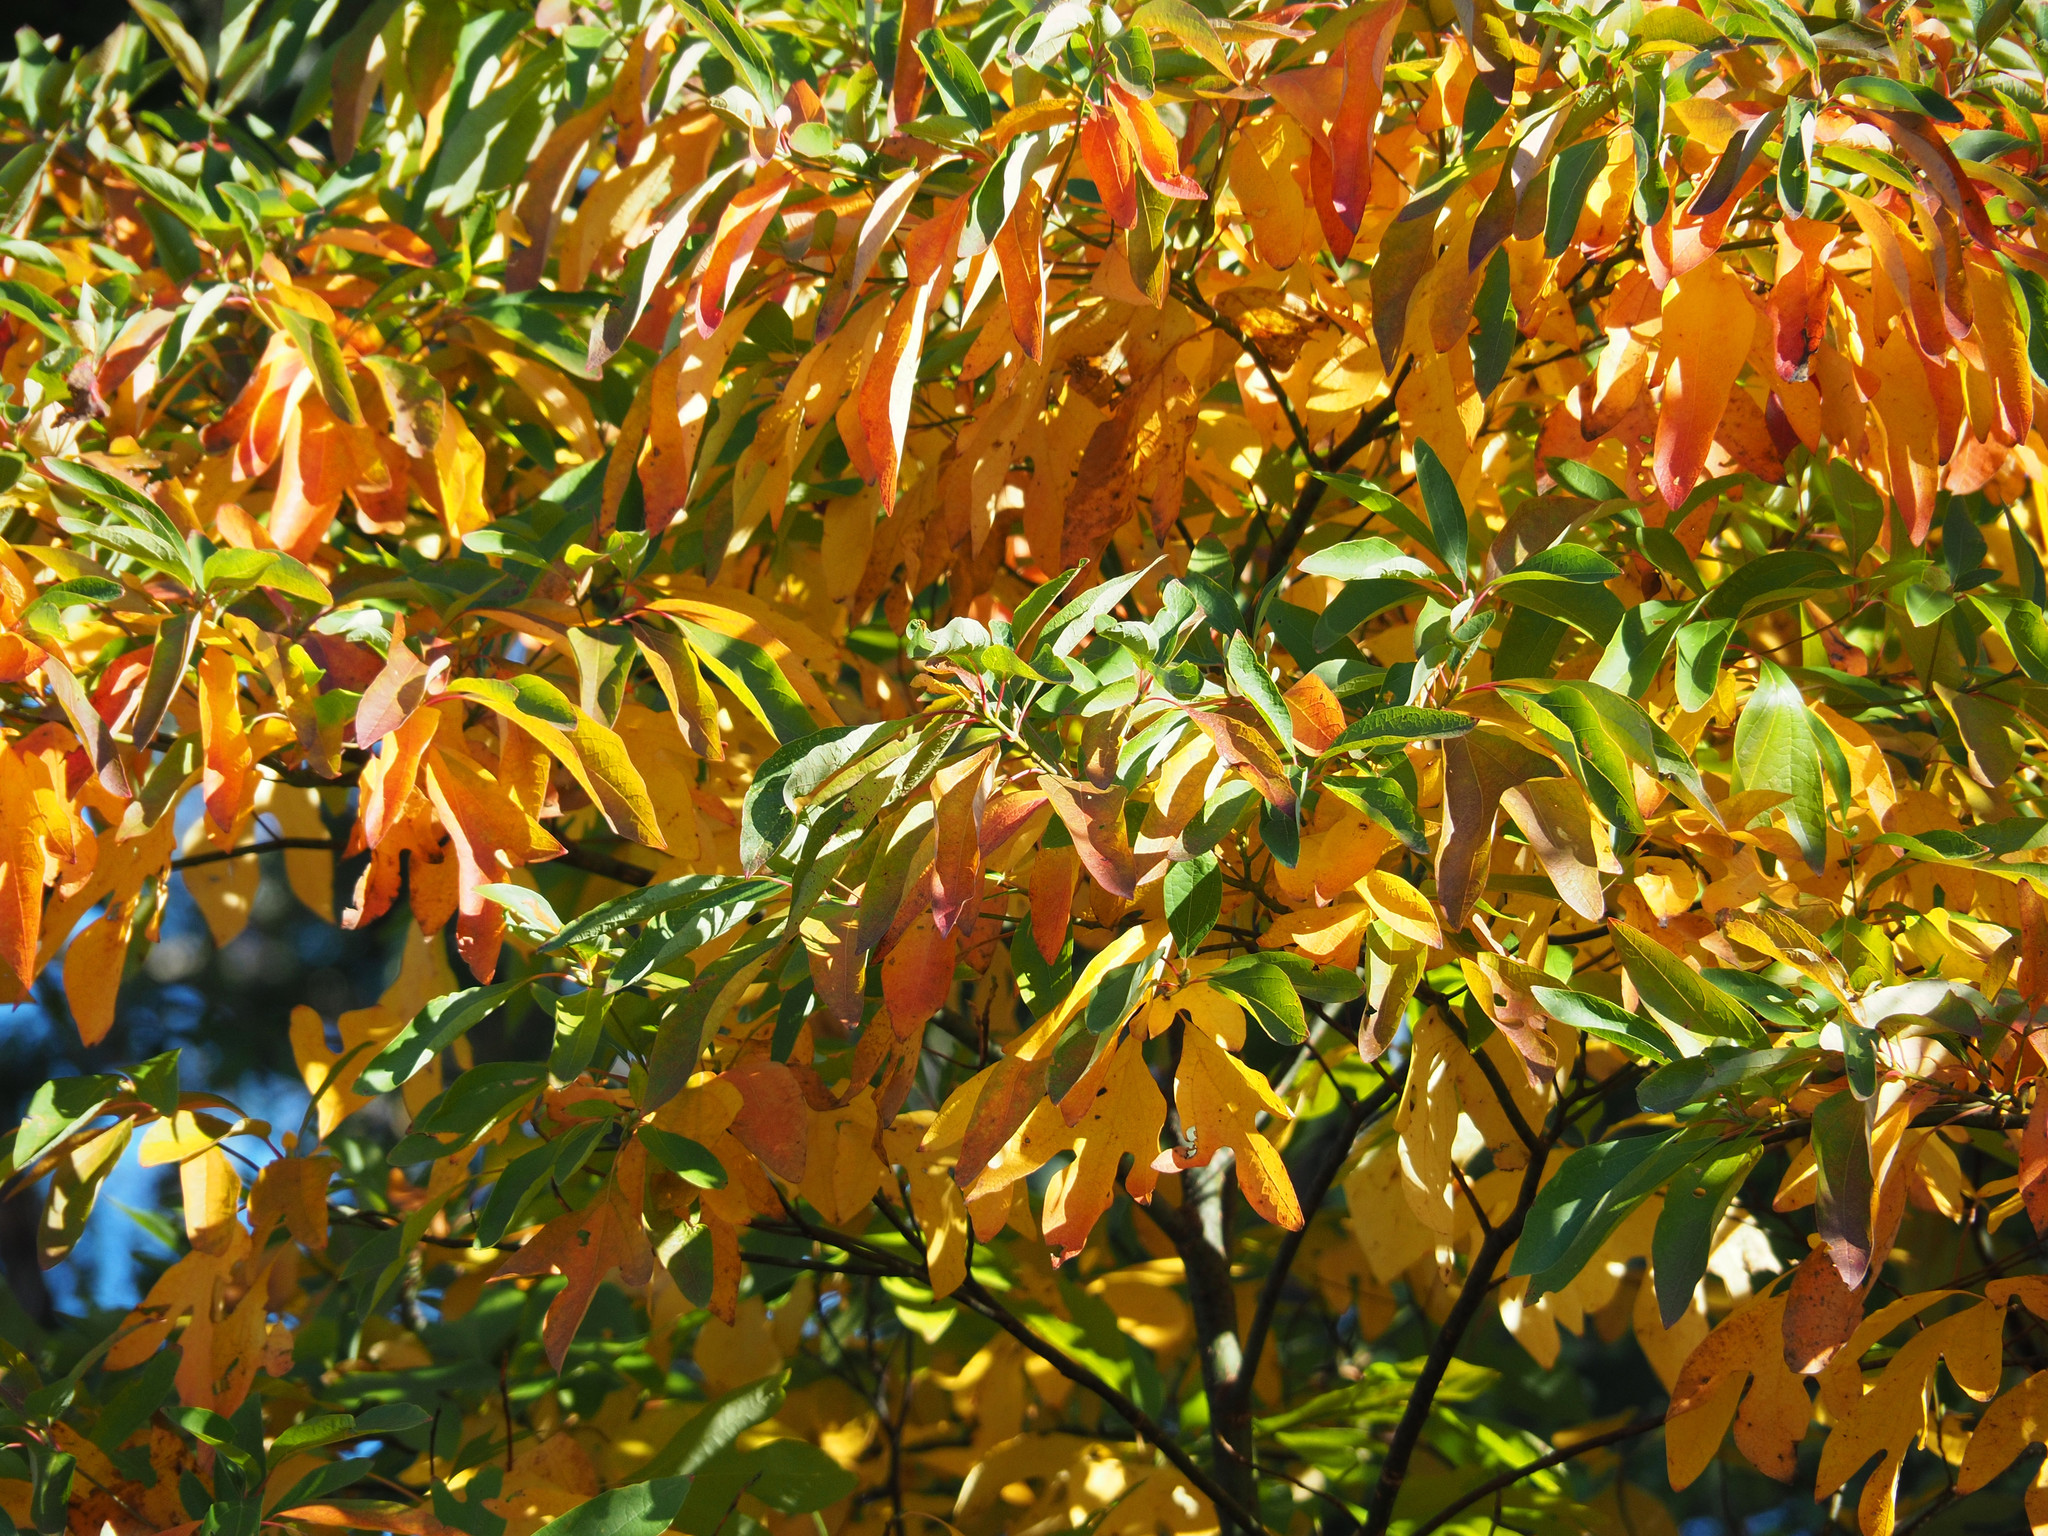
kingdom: Plantae
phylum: Tracheophyta
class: Magnoliopsida
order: Laurales
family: Lauraceae
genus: Sassafras
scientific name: Sassafras albidum
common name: Sassafras
